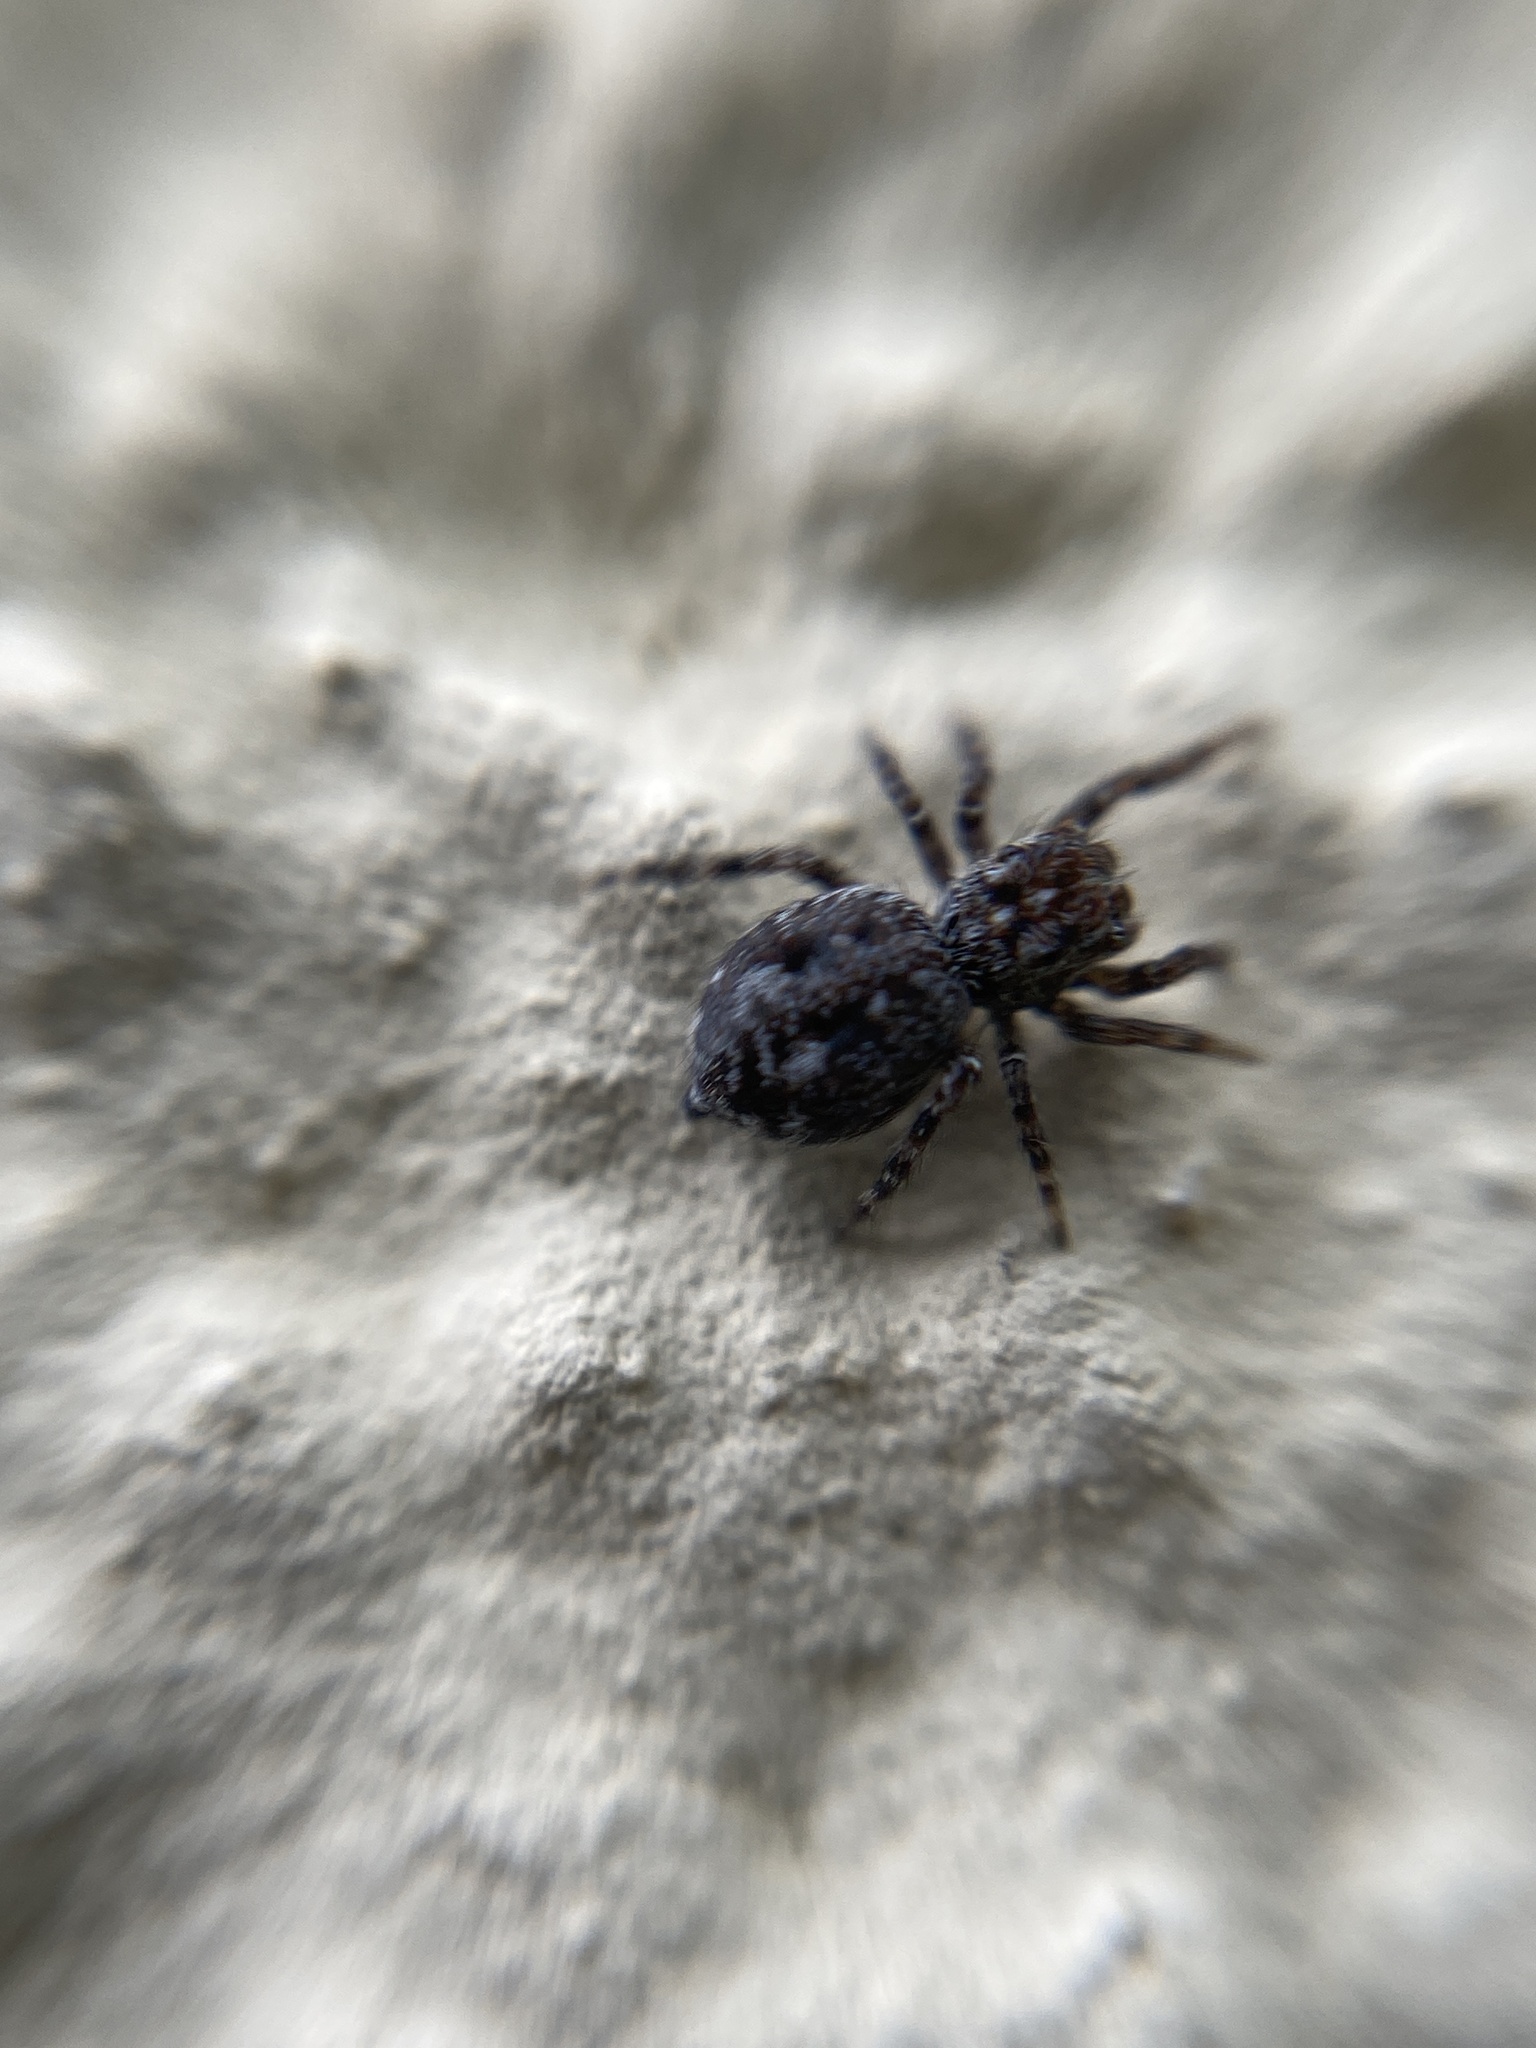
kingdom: Animalia
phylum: Arthropoda
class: Arachnida
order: Araneae
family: Salticidae
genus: Attulus
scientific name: Attulus pubescens
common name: Jumping spider
